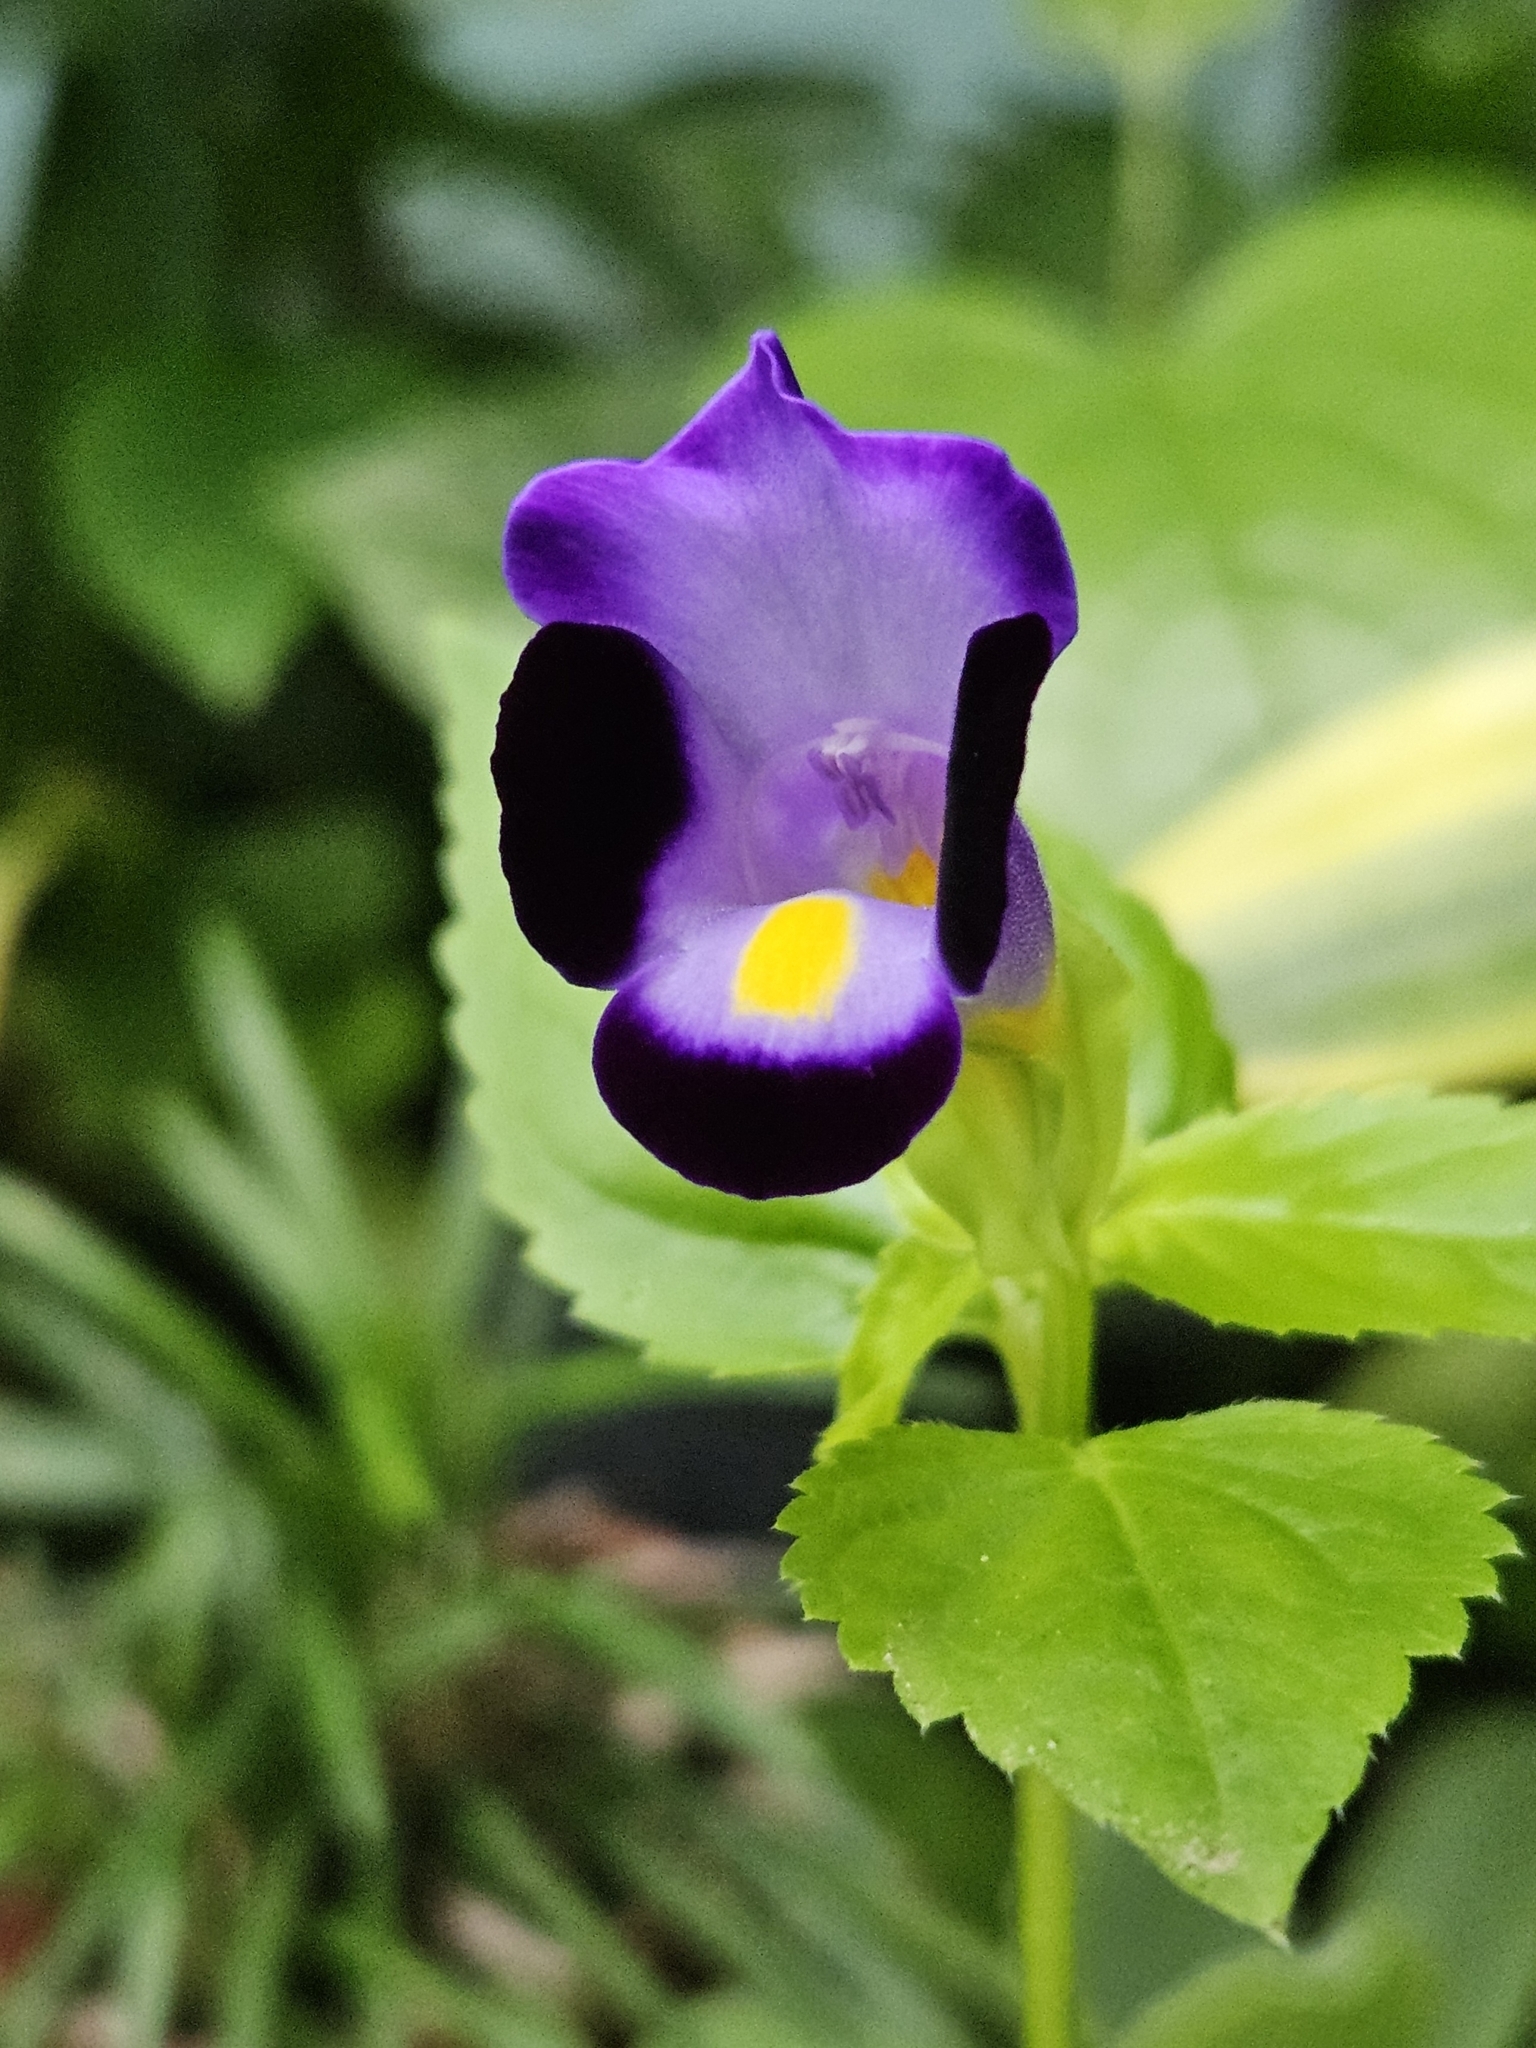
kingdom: Plantae
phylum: Tracheophyta
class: Magnoliopsida
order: Lamiales
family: Linderniaceae
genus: Torenia
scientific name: Torenia fournieri
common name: Bluewings
